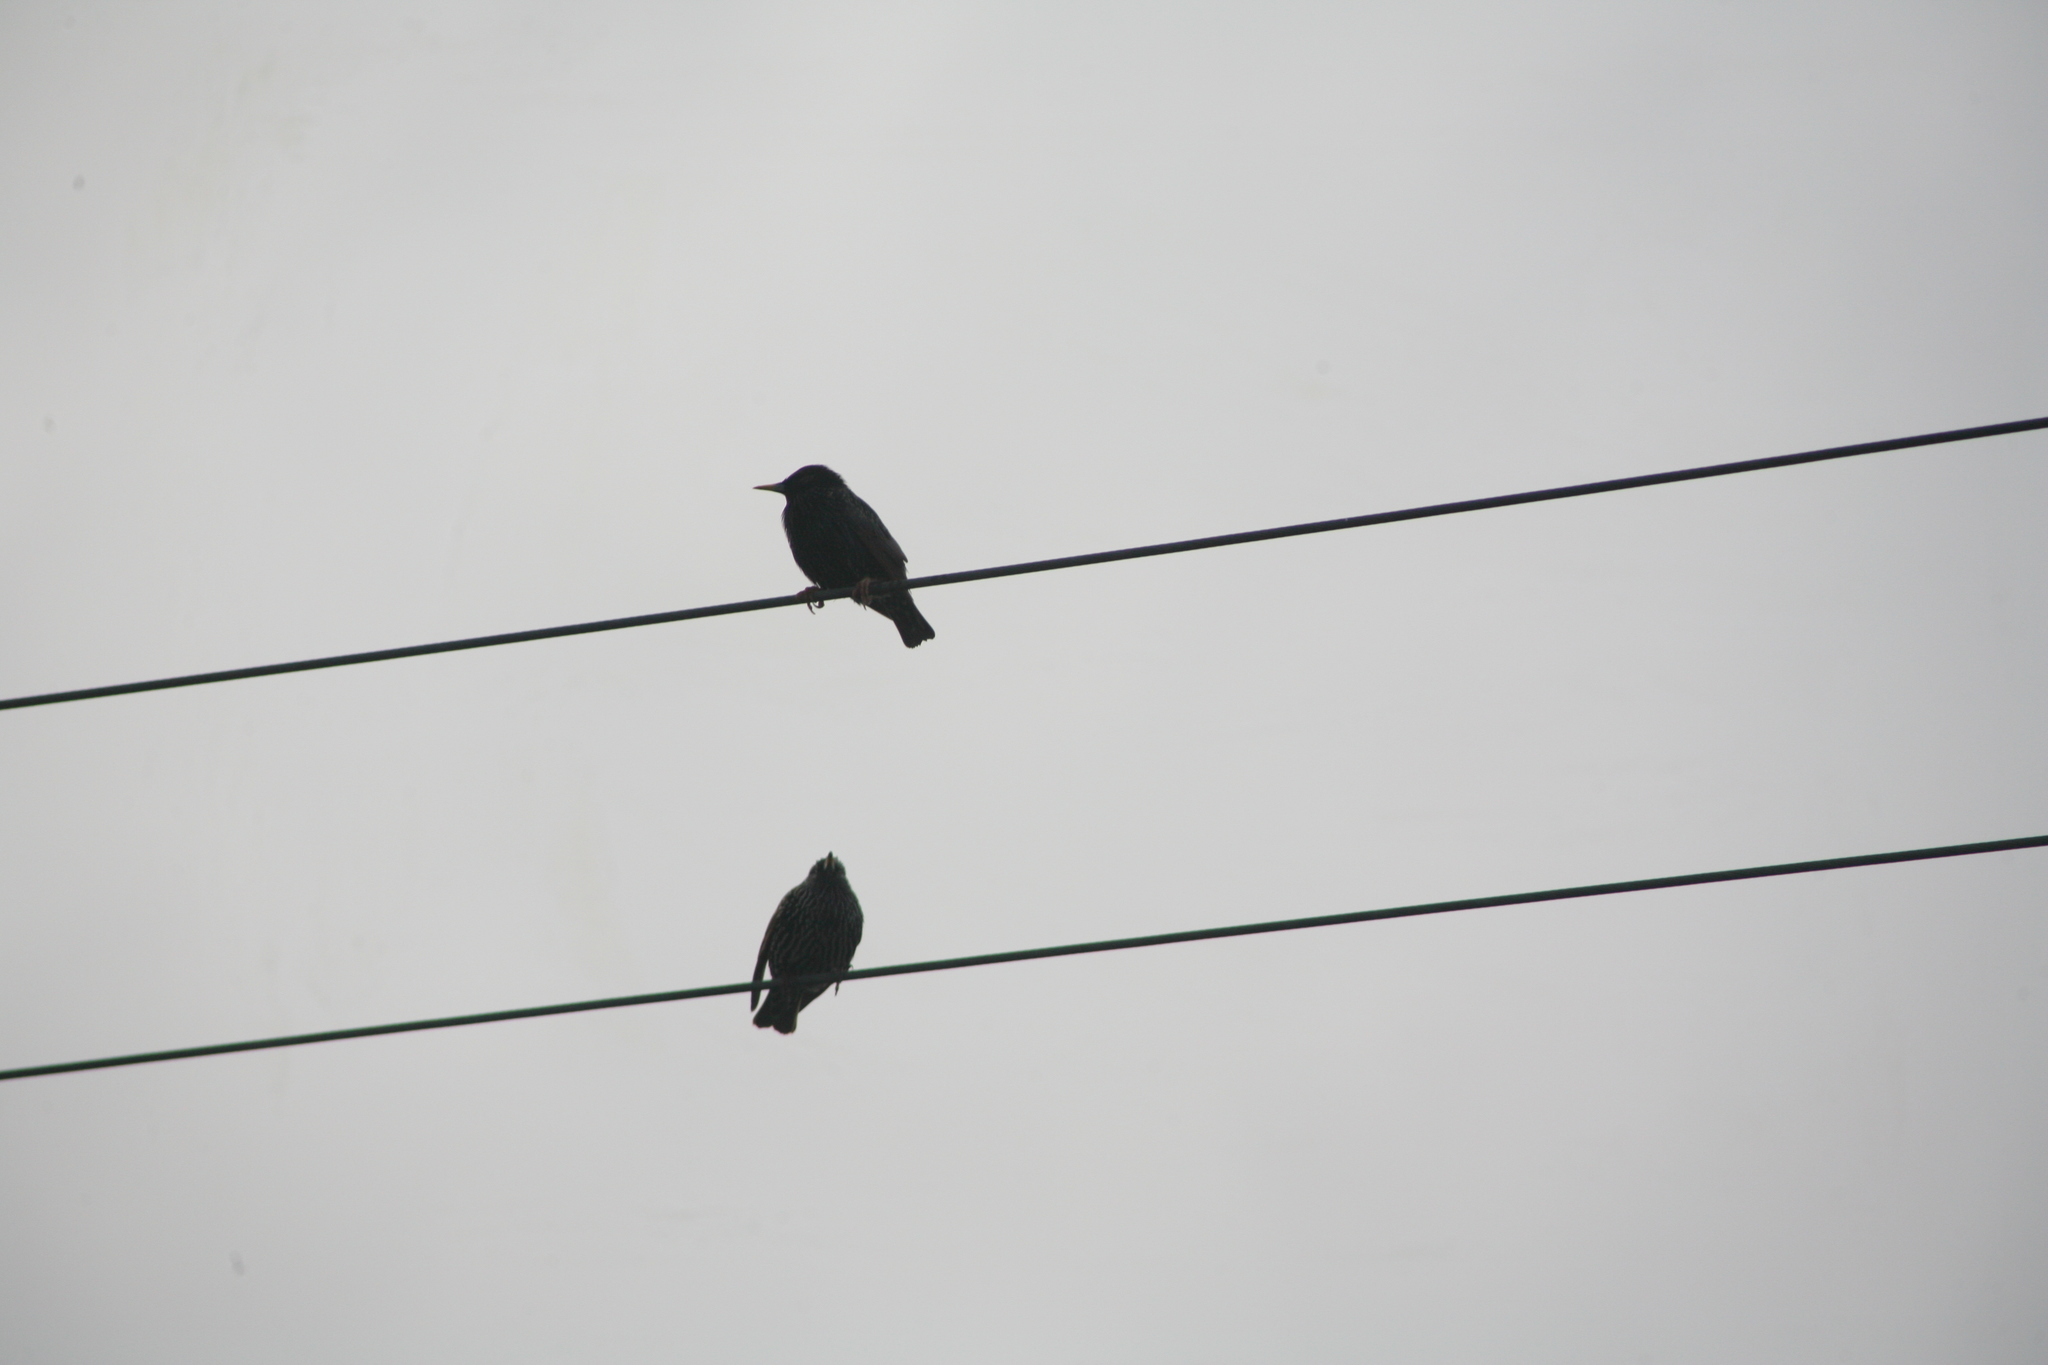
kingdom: Animalia
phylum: Chordata
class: Aves
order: Passeriformes
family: Sturnidae
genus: Sturnus
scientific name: Sturnus vulgaris
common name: Common starling
